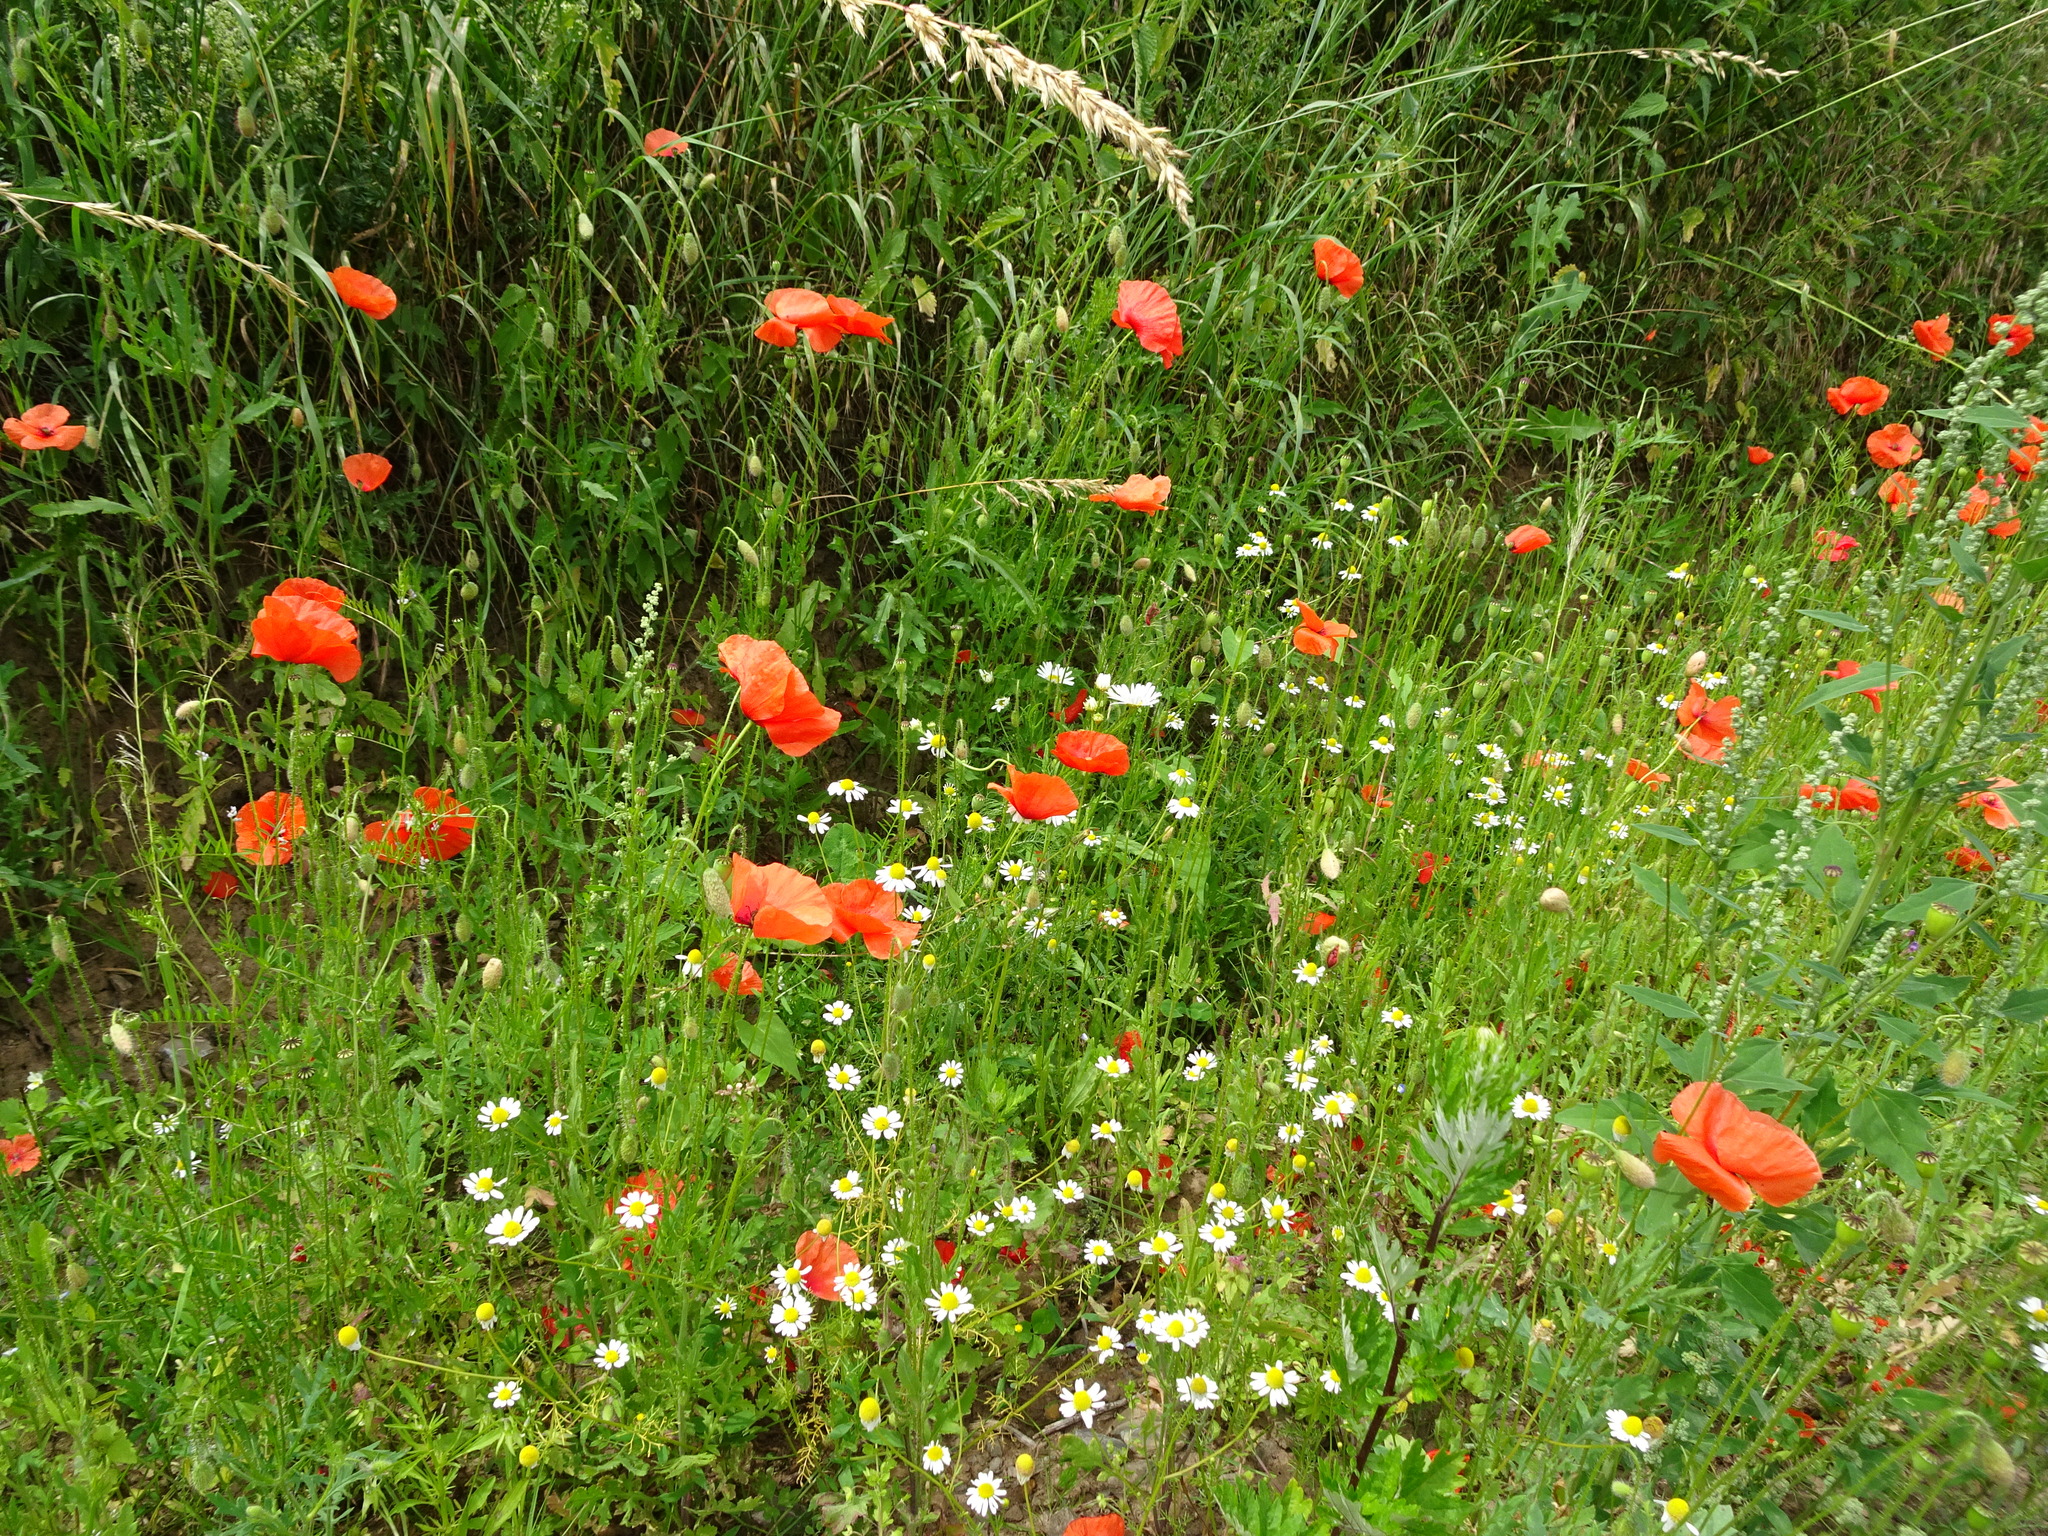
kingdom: Plantae
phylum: Tracheophyta
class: Magnoliopsida
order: Ranunculales
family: Papaveraceae
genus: Papaver
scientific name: Papaver rhoeas
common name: Corn poppy
